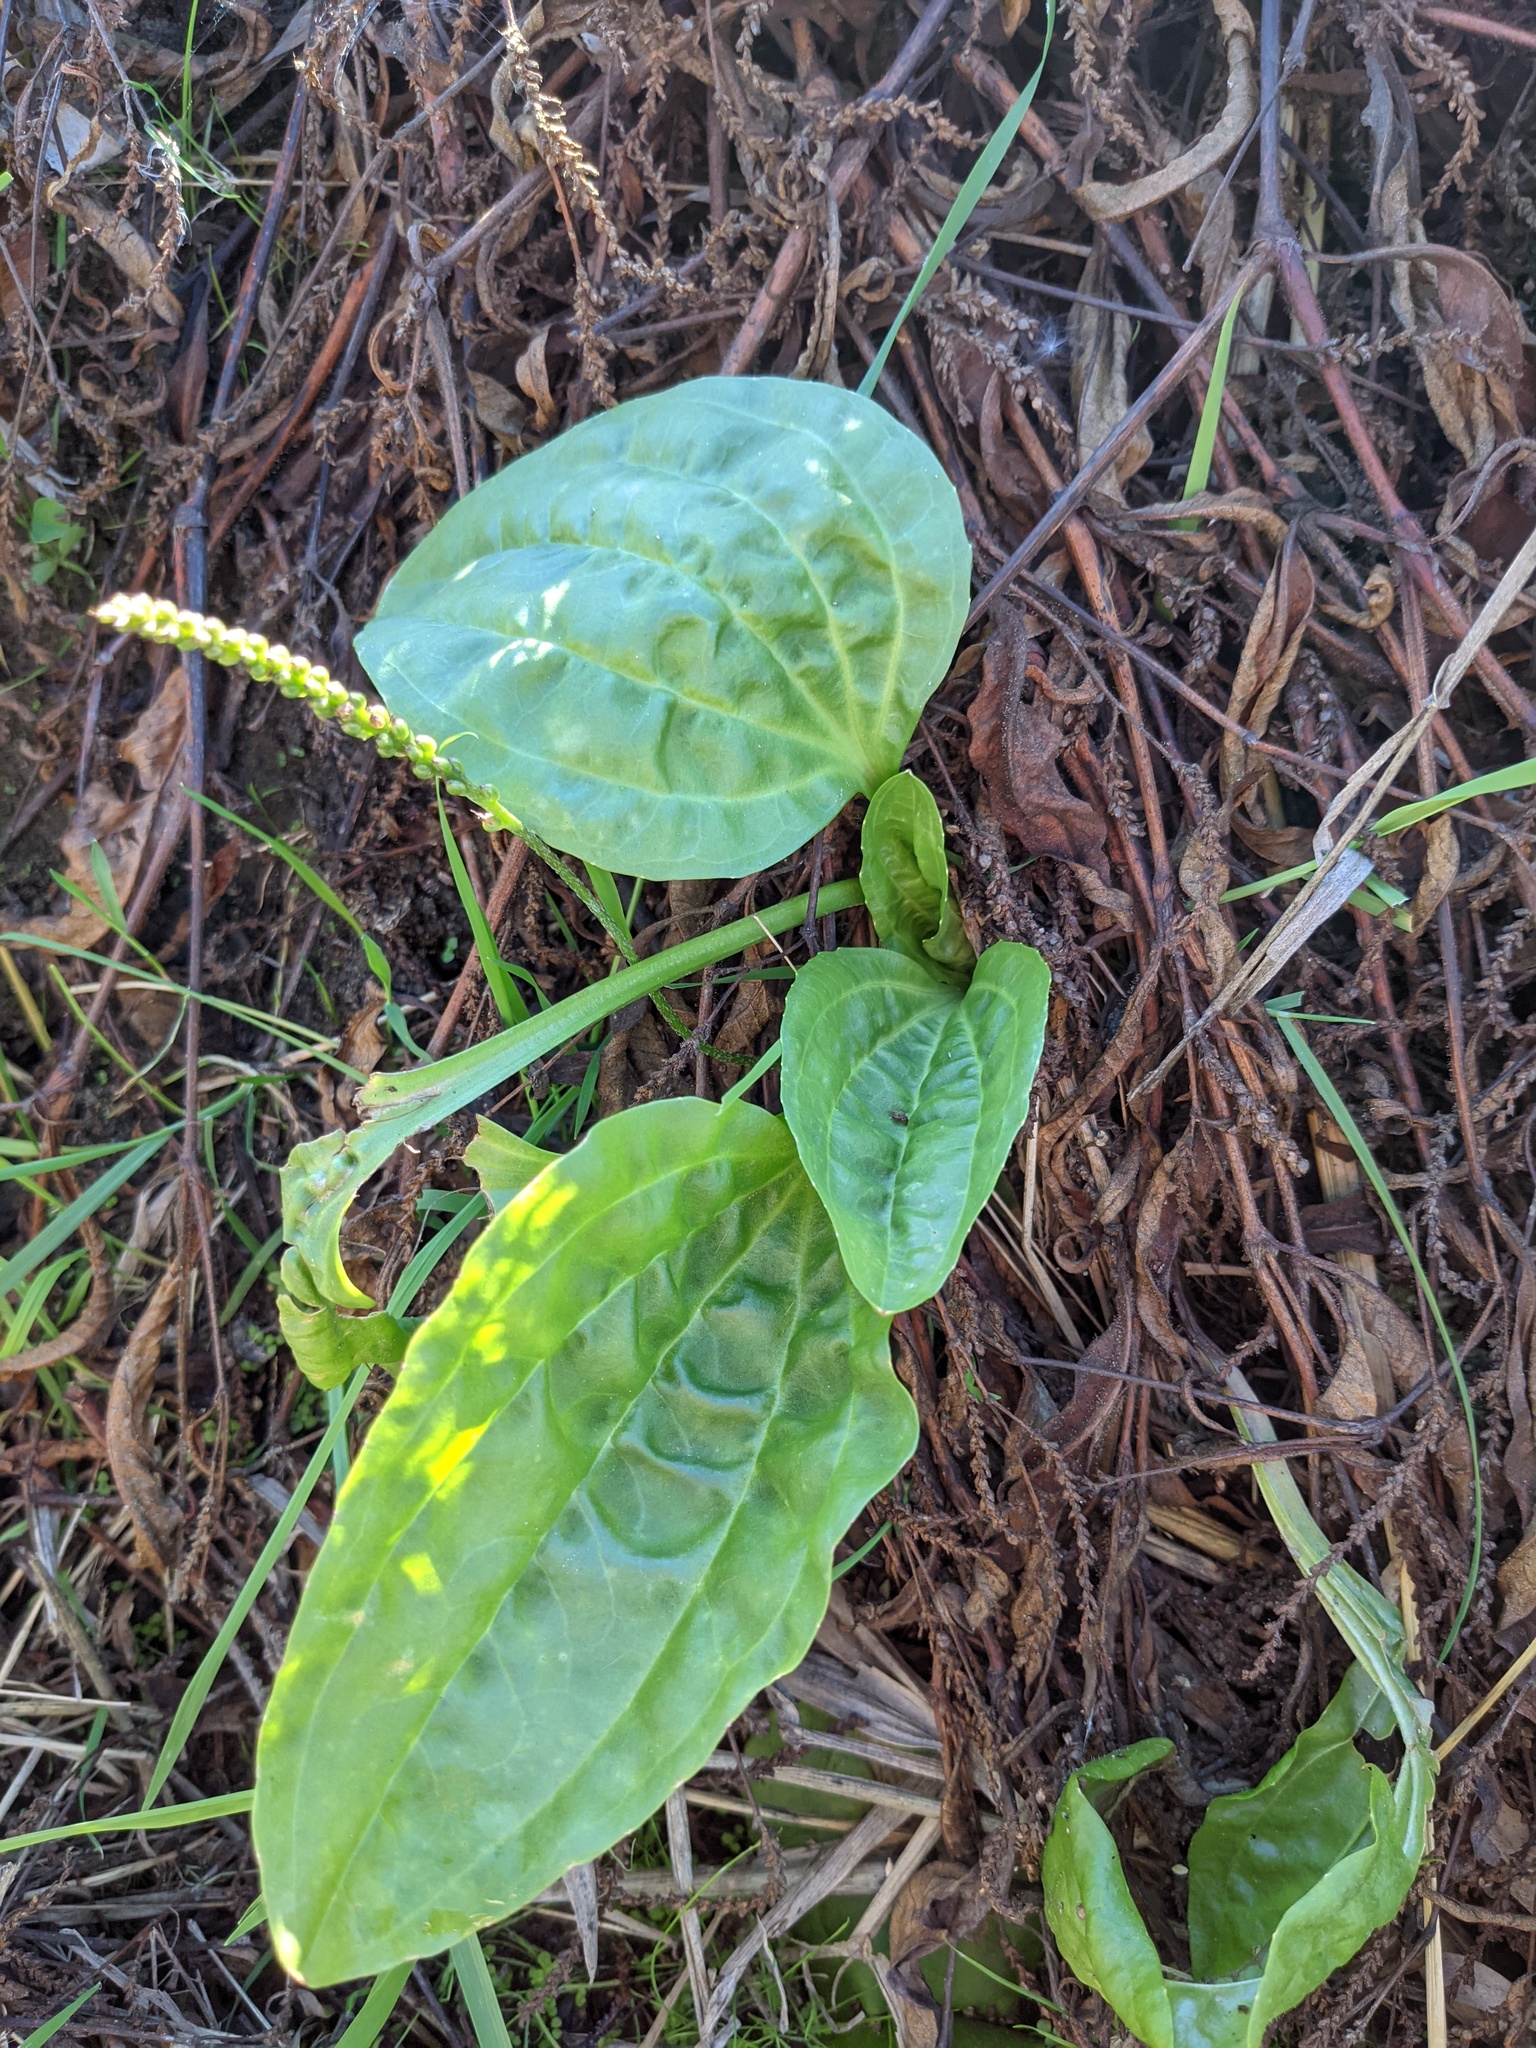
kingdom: Plantae
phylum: Tracheophyta
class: Magnoliopsida
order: Lamiales
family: Plantaginaceae
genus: Plantago
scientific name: Plantago major
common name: Common plantain
